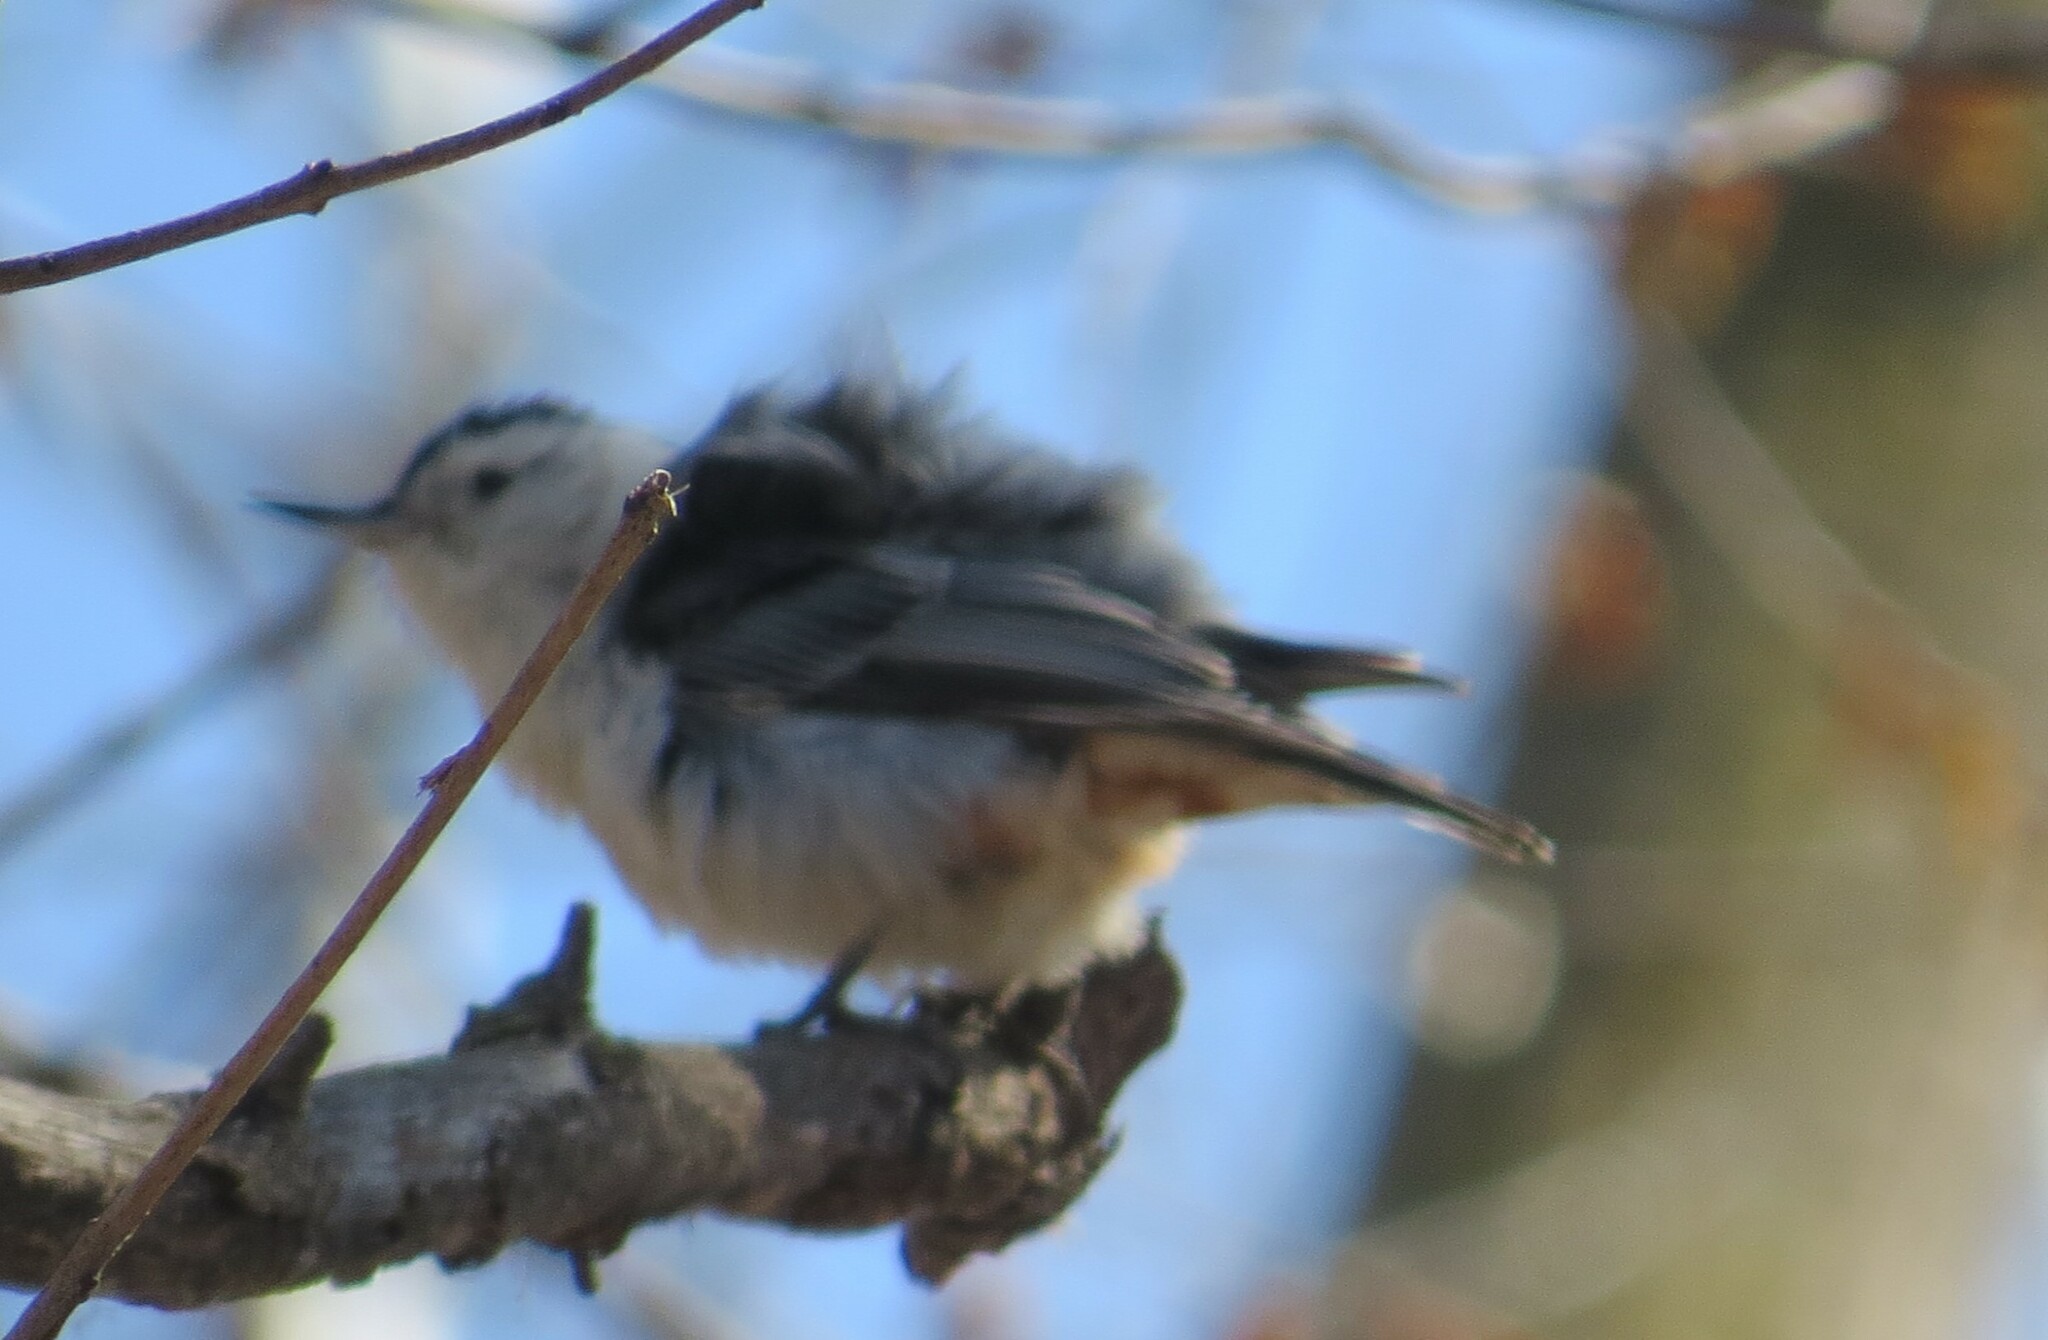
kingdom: Animalia
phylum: Chordata
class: Aves
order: Passeriformes
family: Sittidae
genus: Sitta
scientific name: Sitta carolinensis
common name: White-breasted nuthatch
